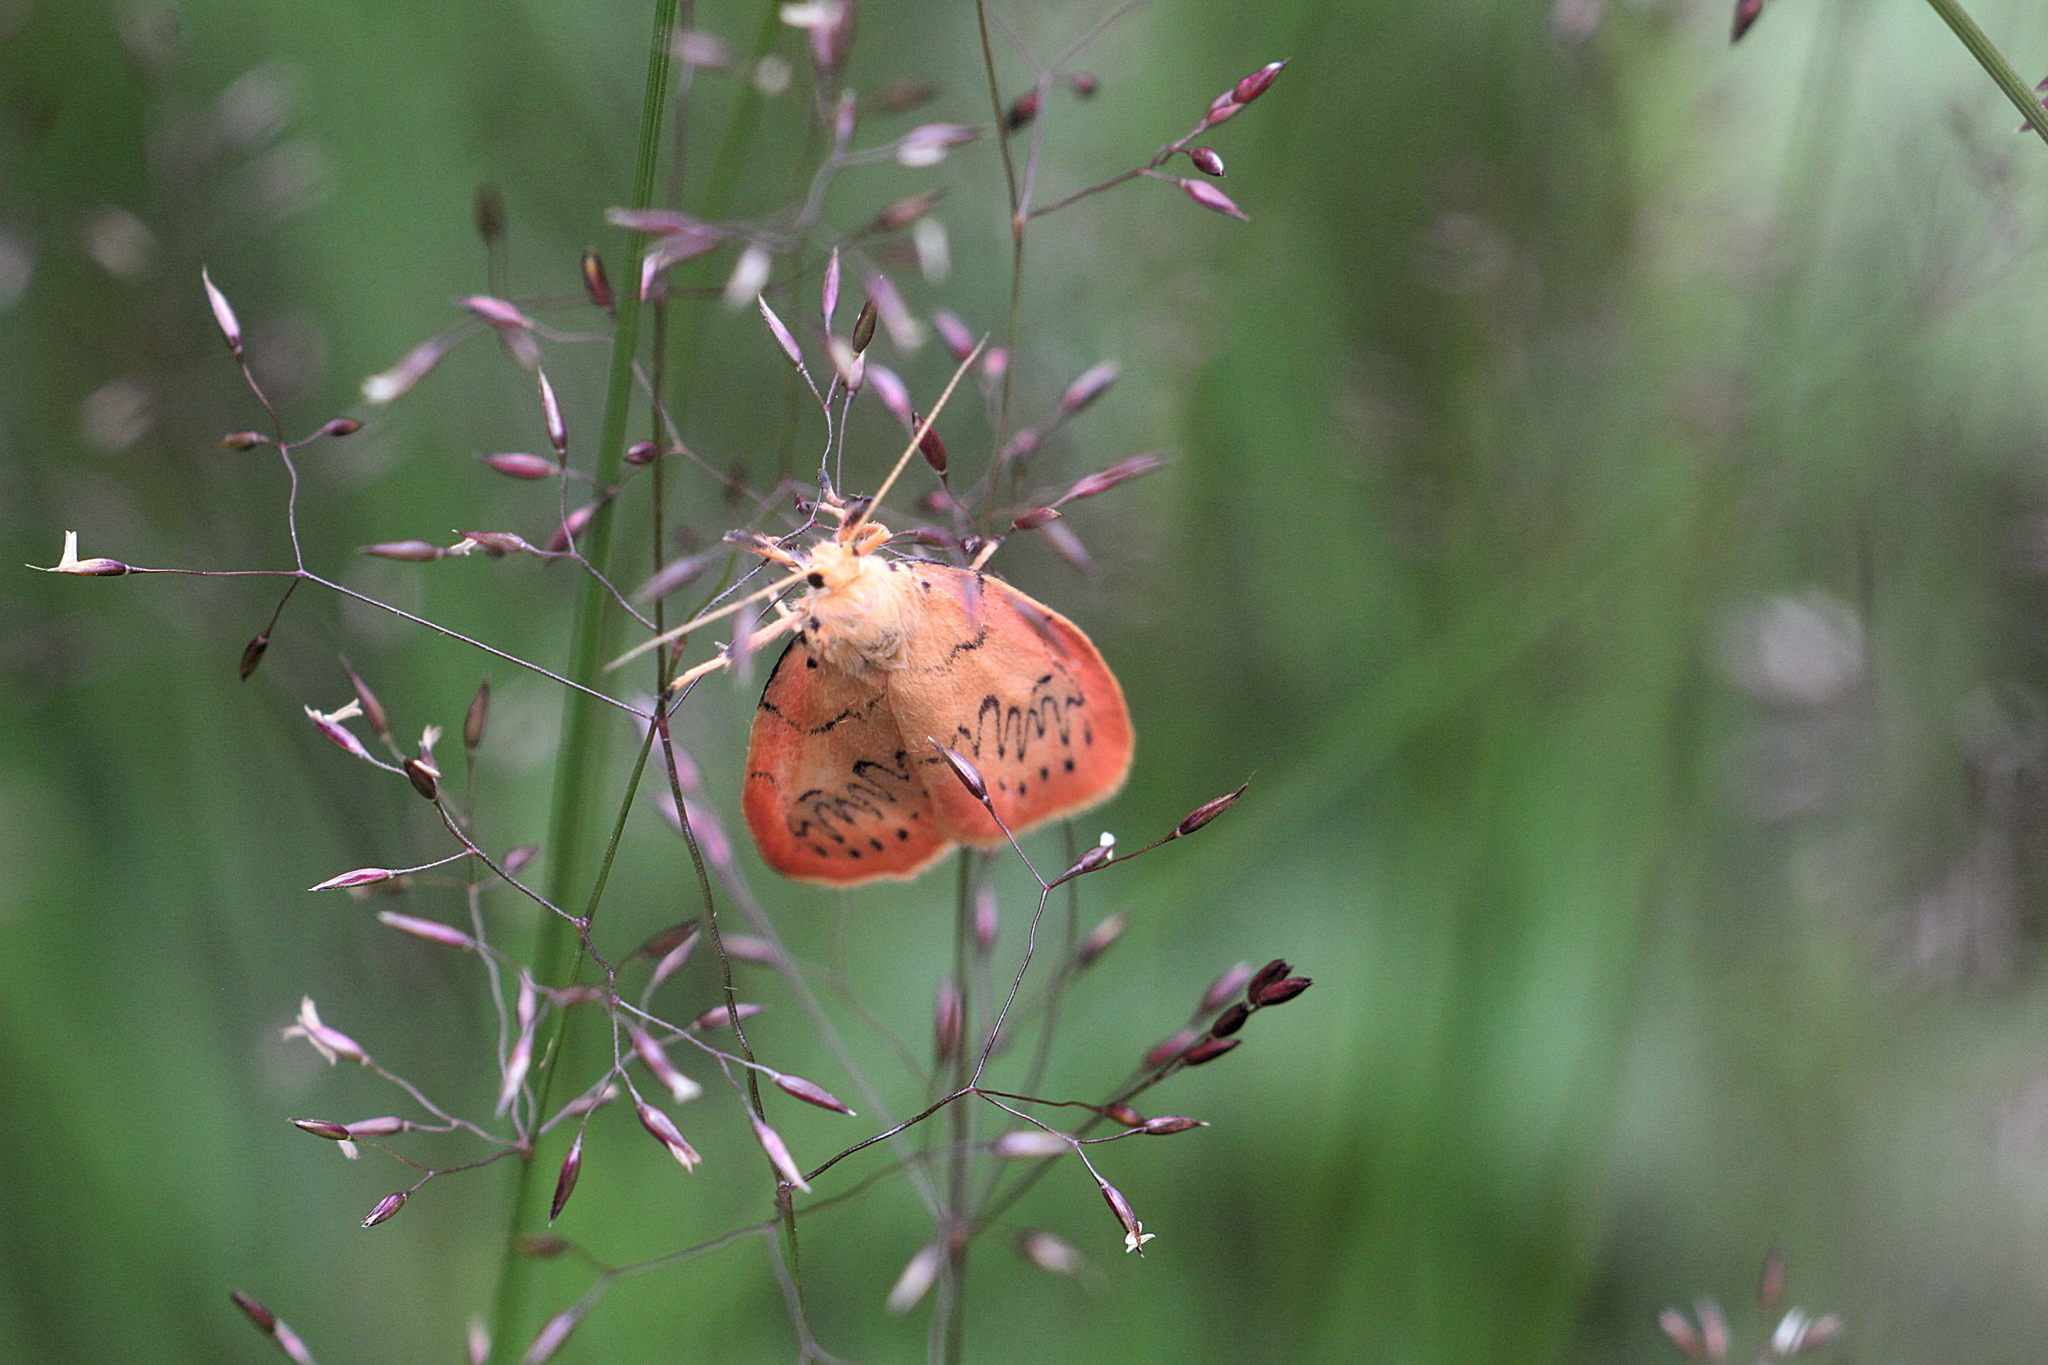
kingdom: Animalia
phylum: Arthropoda
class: Insecta
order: Lepidoptera
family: Erebidae
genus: Miltochrista
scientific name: Miltochrista miniata
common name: Rosy footman
